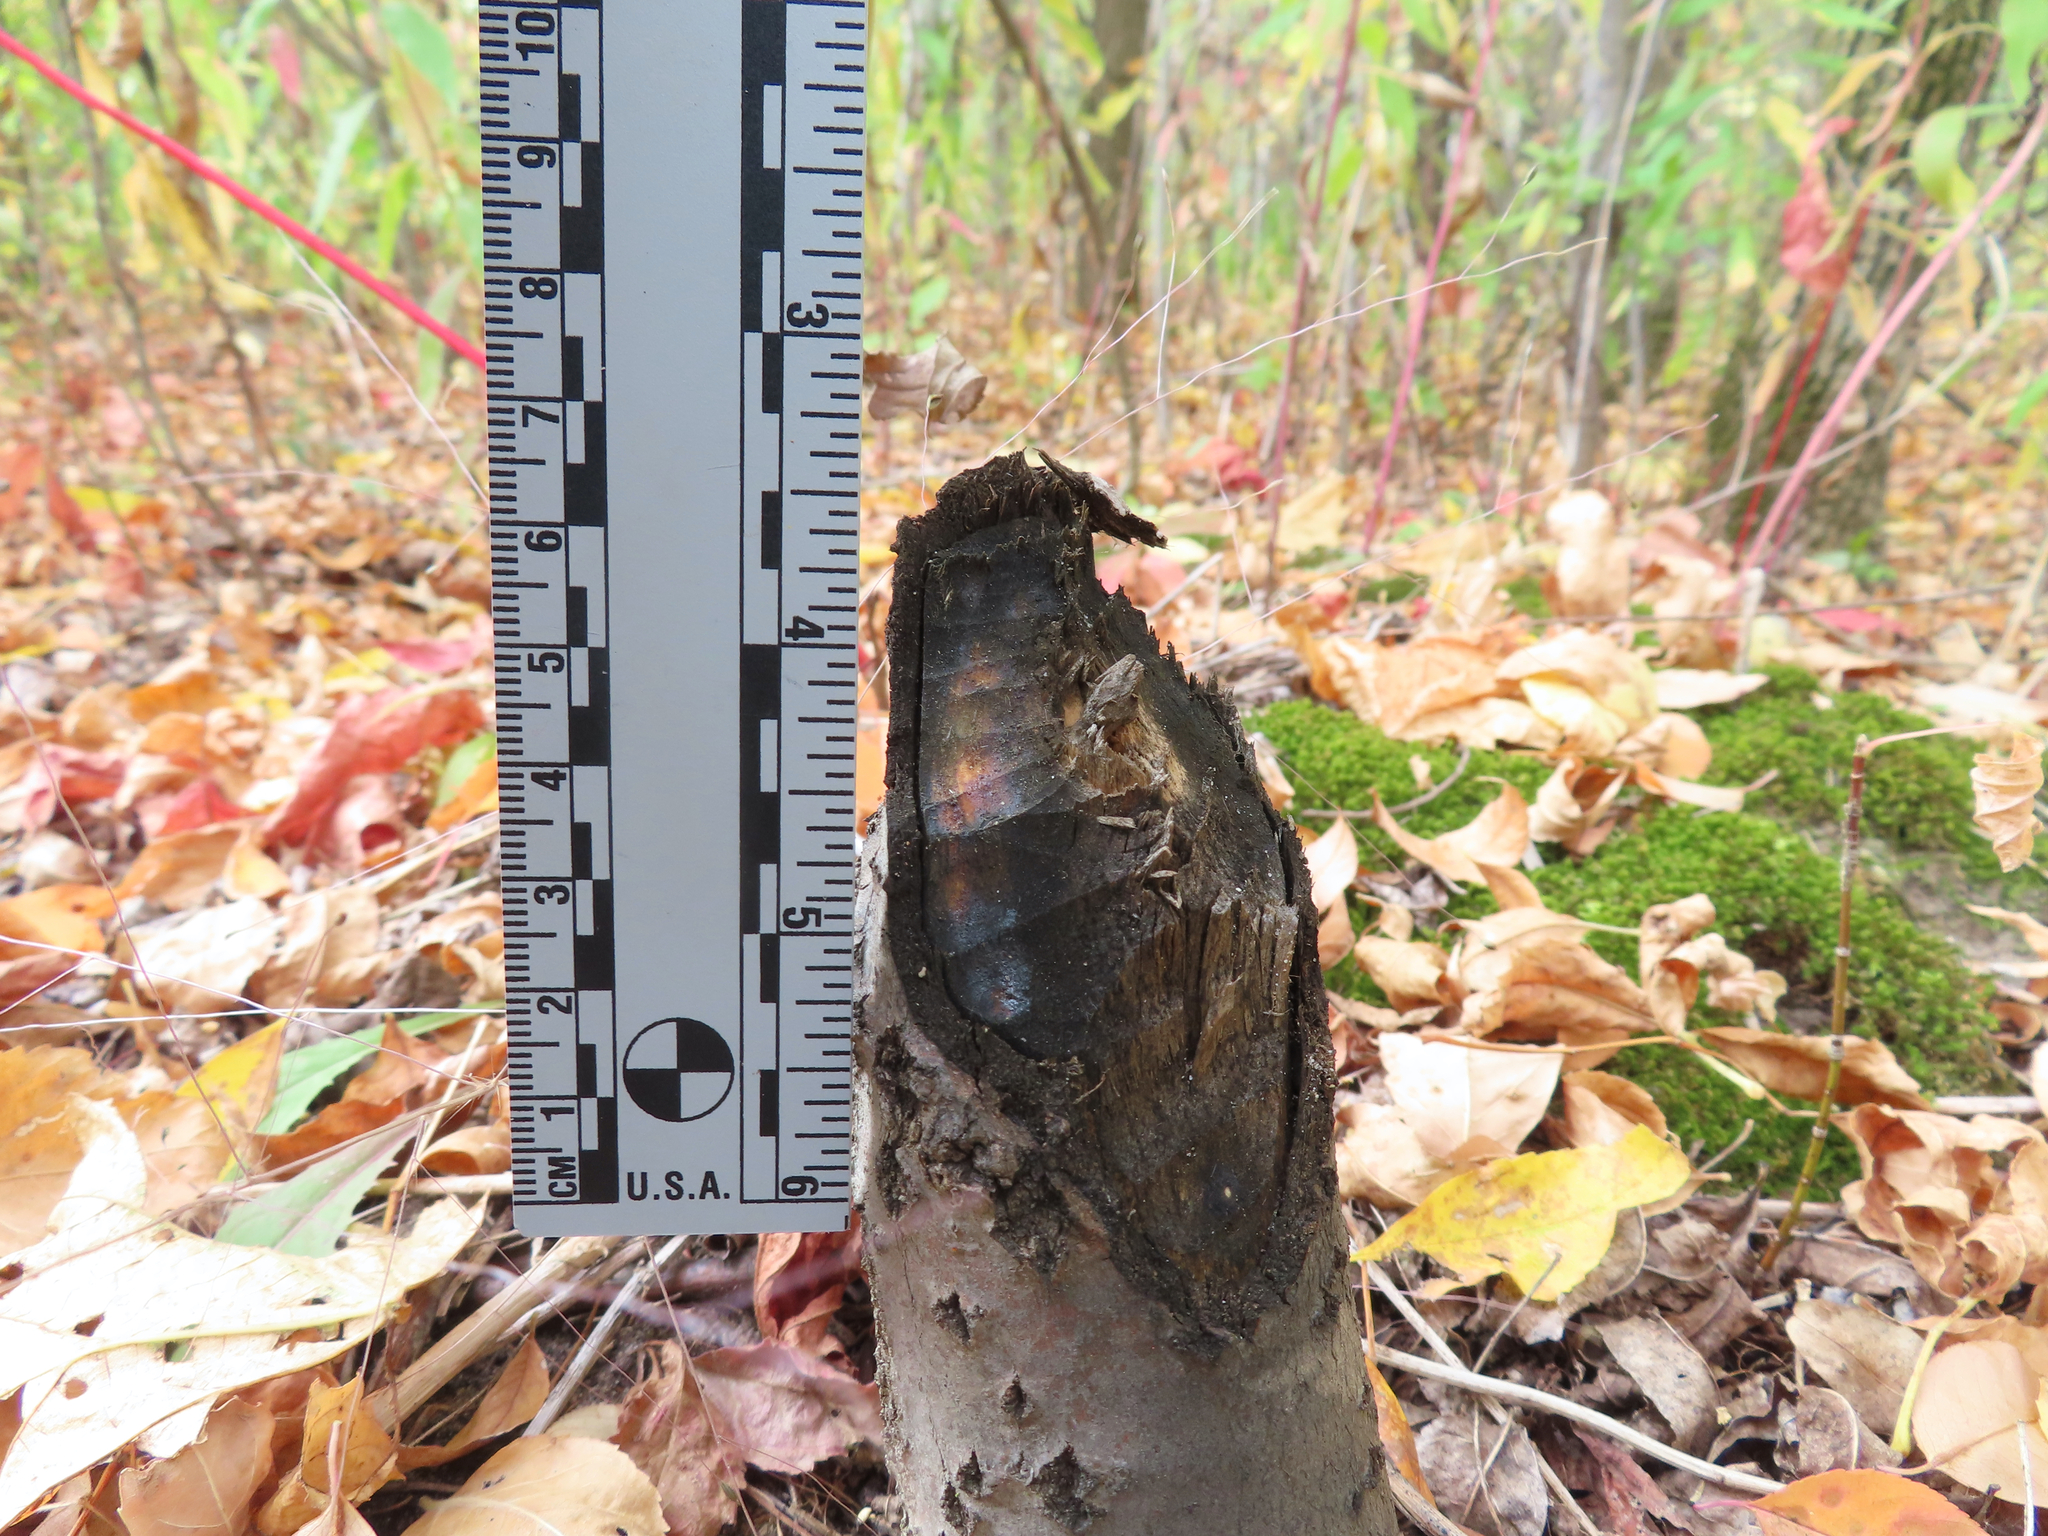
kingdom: Animalia
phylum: Chordata
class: Mammalia
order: Rodentia
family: Castoridae
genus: Castor
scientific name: Castor canadensis
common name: American beaver
